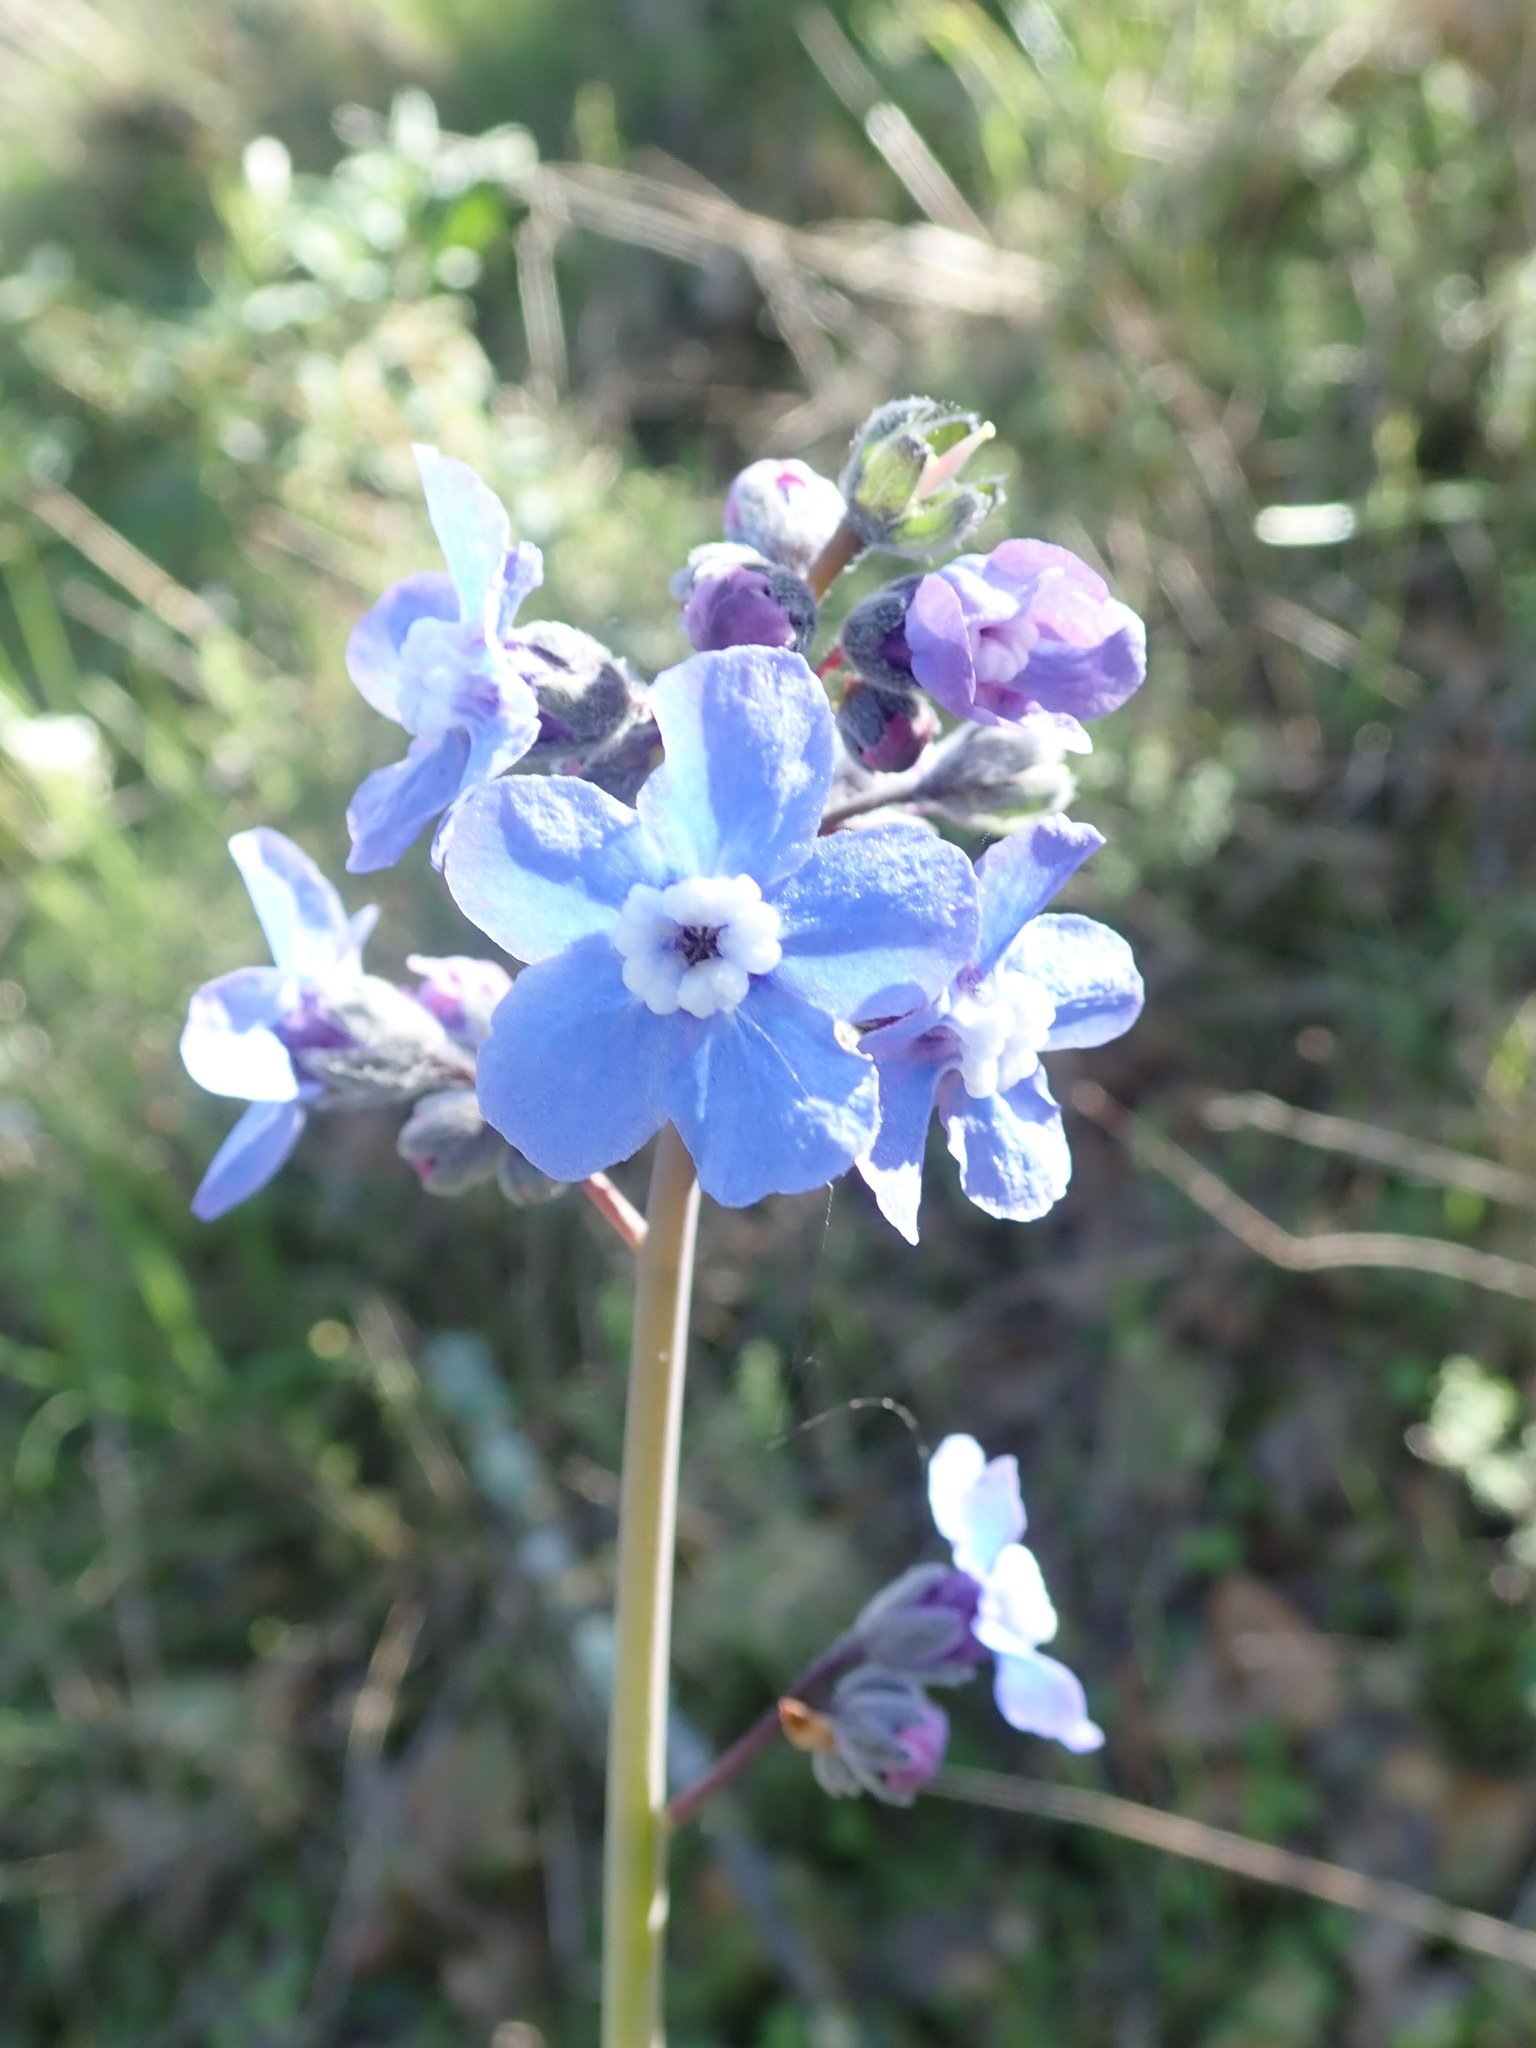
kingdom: Plantae
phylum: Tracheophyta
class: Magnoliopsida
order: Boraginales
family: Boraginaceae
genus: Adelinia
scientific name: Adelinia grande
